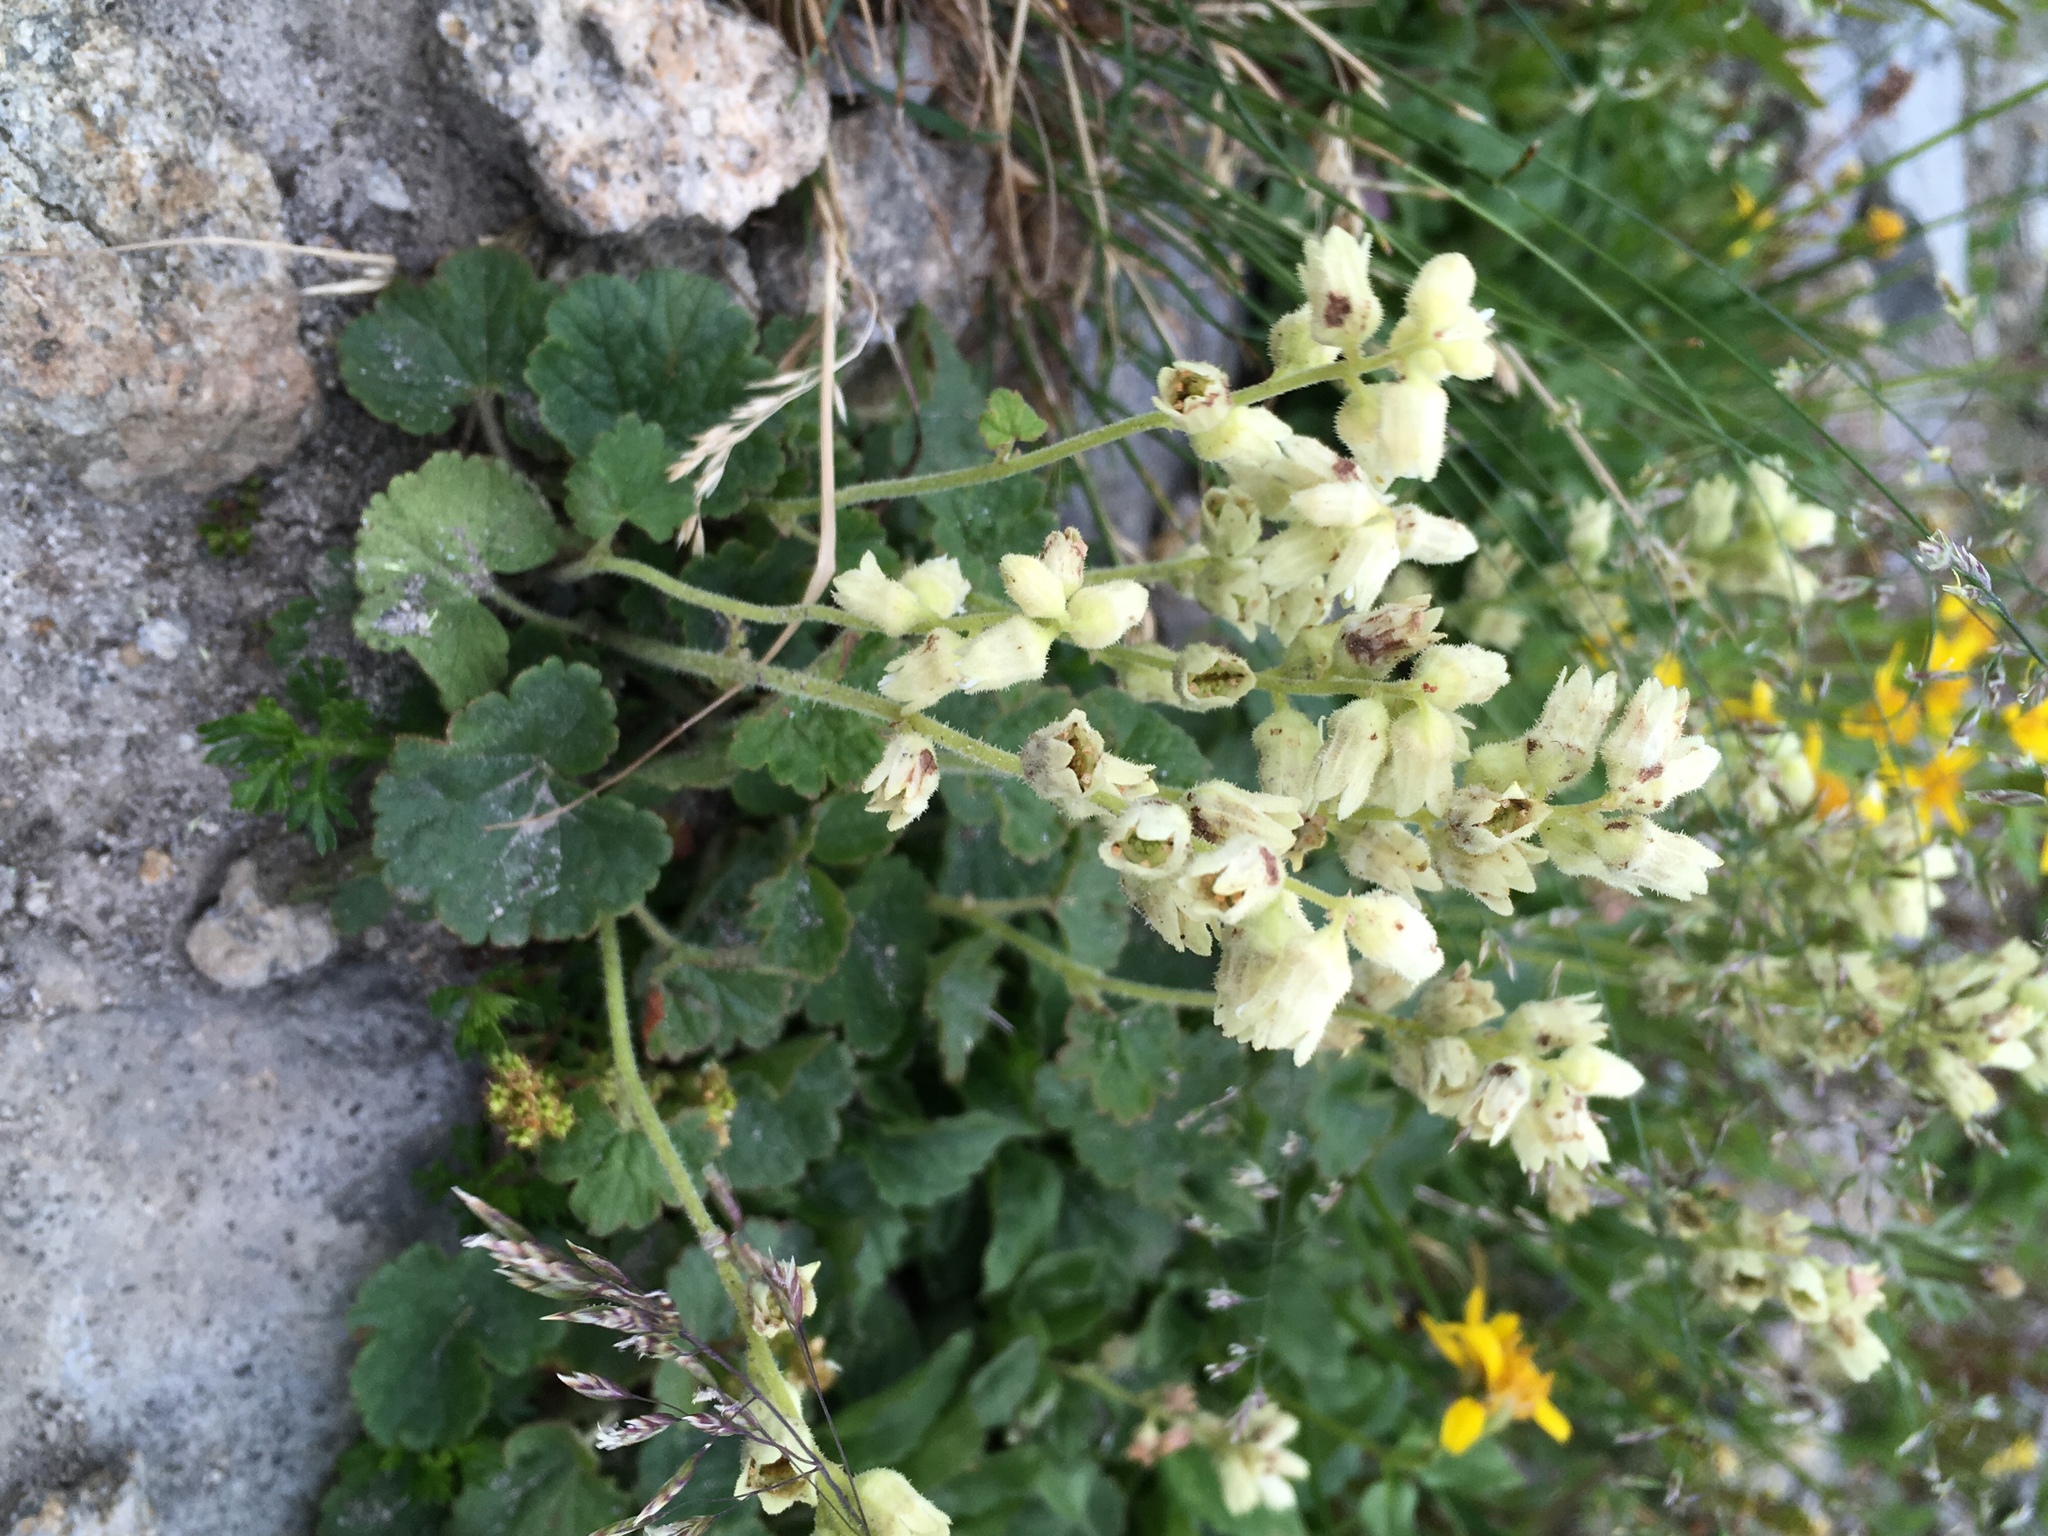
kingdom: Plantae
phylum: Tracheophyta
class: Magnoliopsida
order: Saxifragales
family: Saxifragaceae
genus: Elmera
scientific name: Elmera racemosa
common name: Elmera
